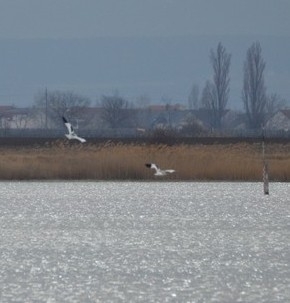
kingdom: Animalia
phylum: Chordata
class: Aves
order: Charadriiformes
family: Recurvirostridae
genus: Recurvirostra
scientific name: Recurvirostra avosetta
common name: Pied avocet
